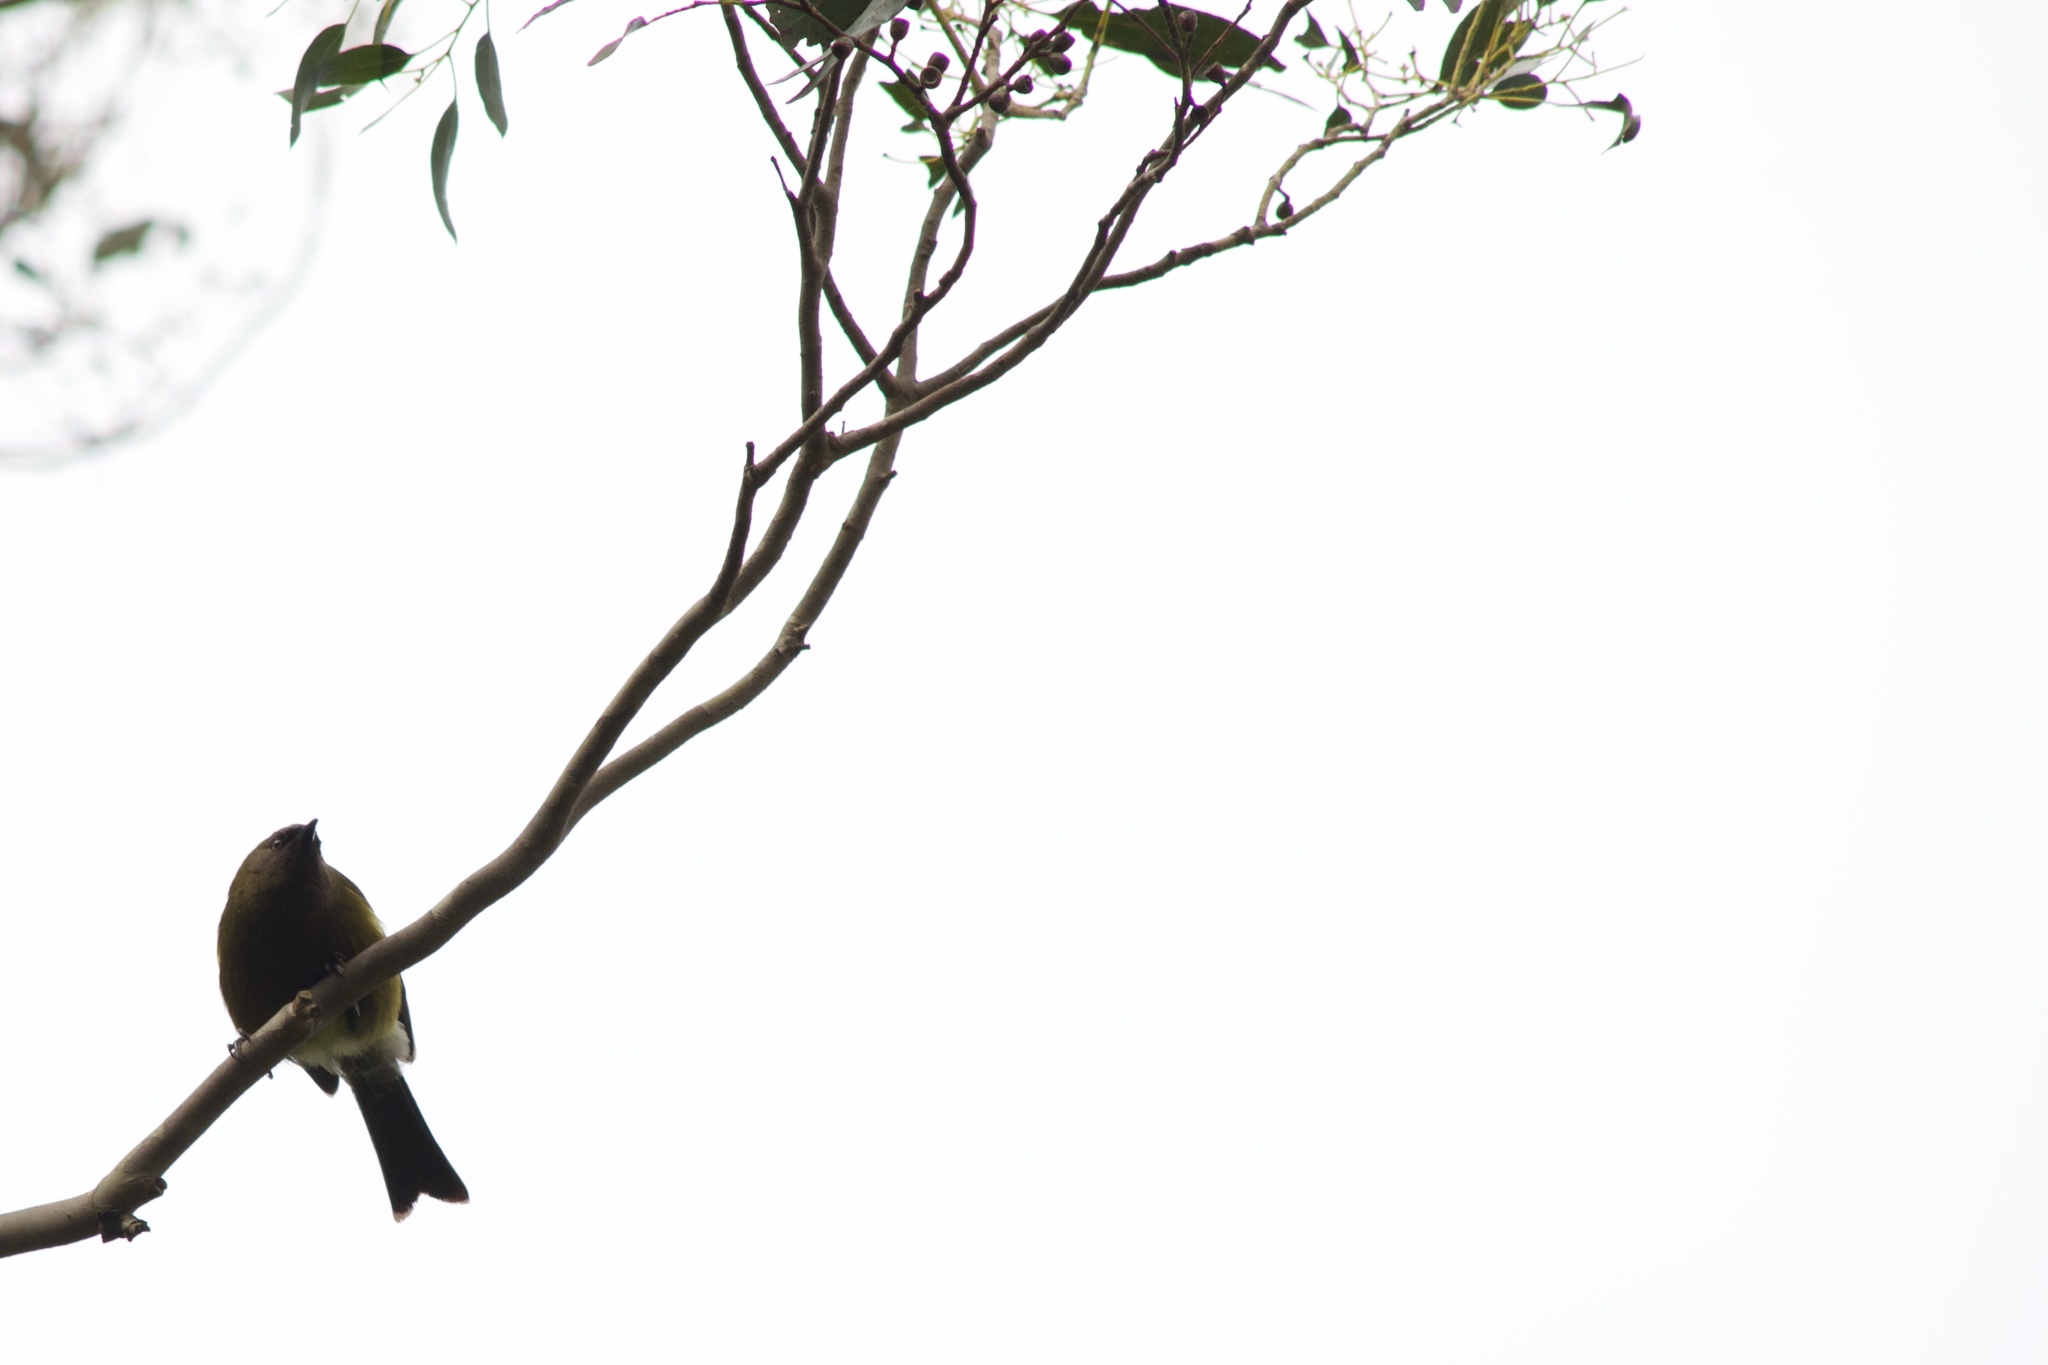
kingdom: Animalia
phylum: Chordata
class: Aves
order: Passeriformes
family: Meliphagidae
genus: Anthornis
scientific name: Anthornis melanura
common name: New zealand bellbird
